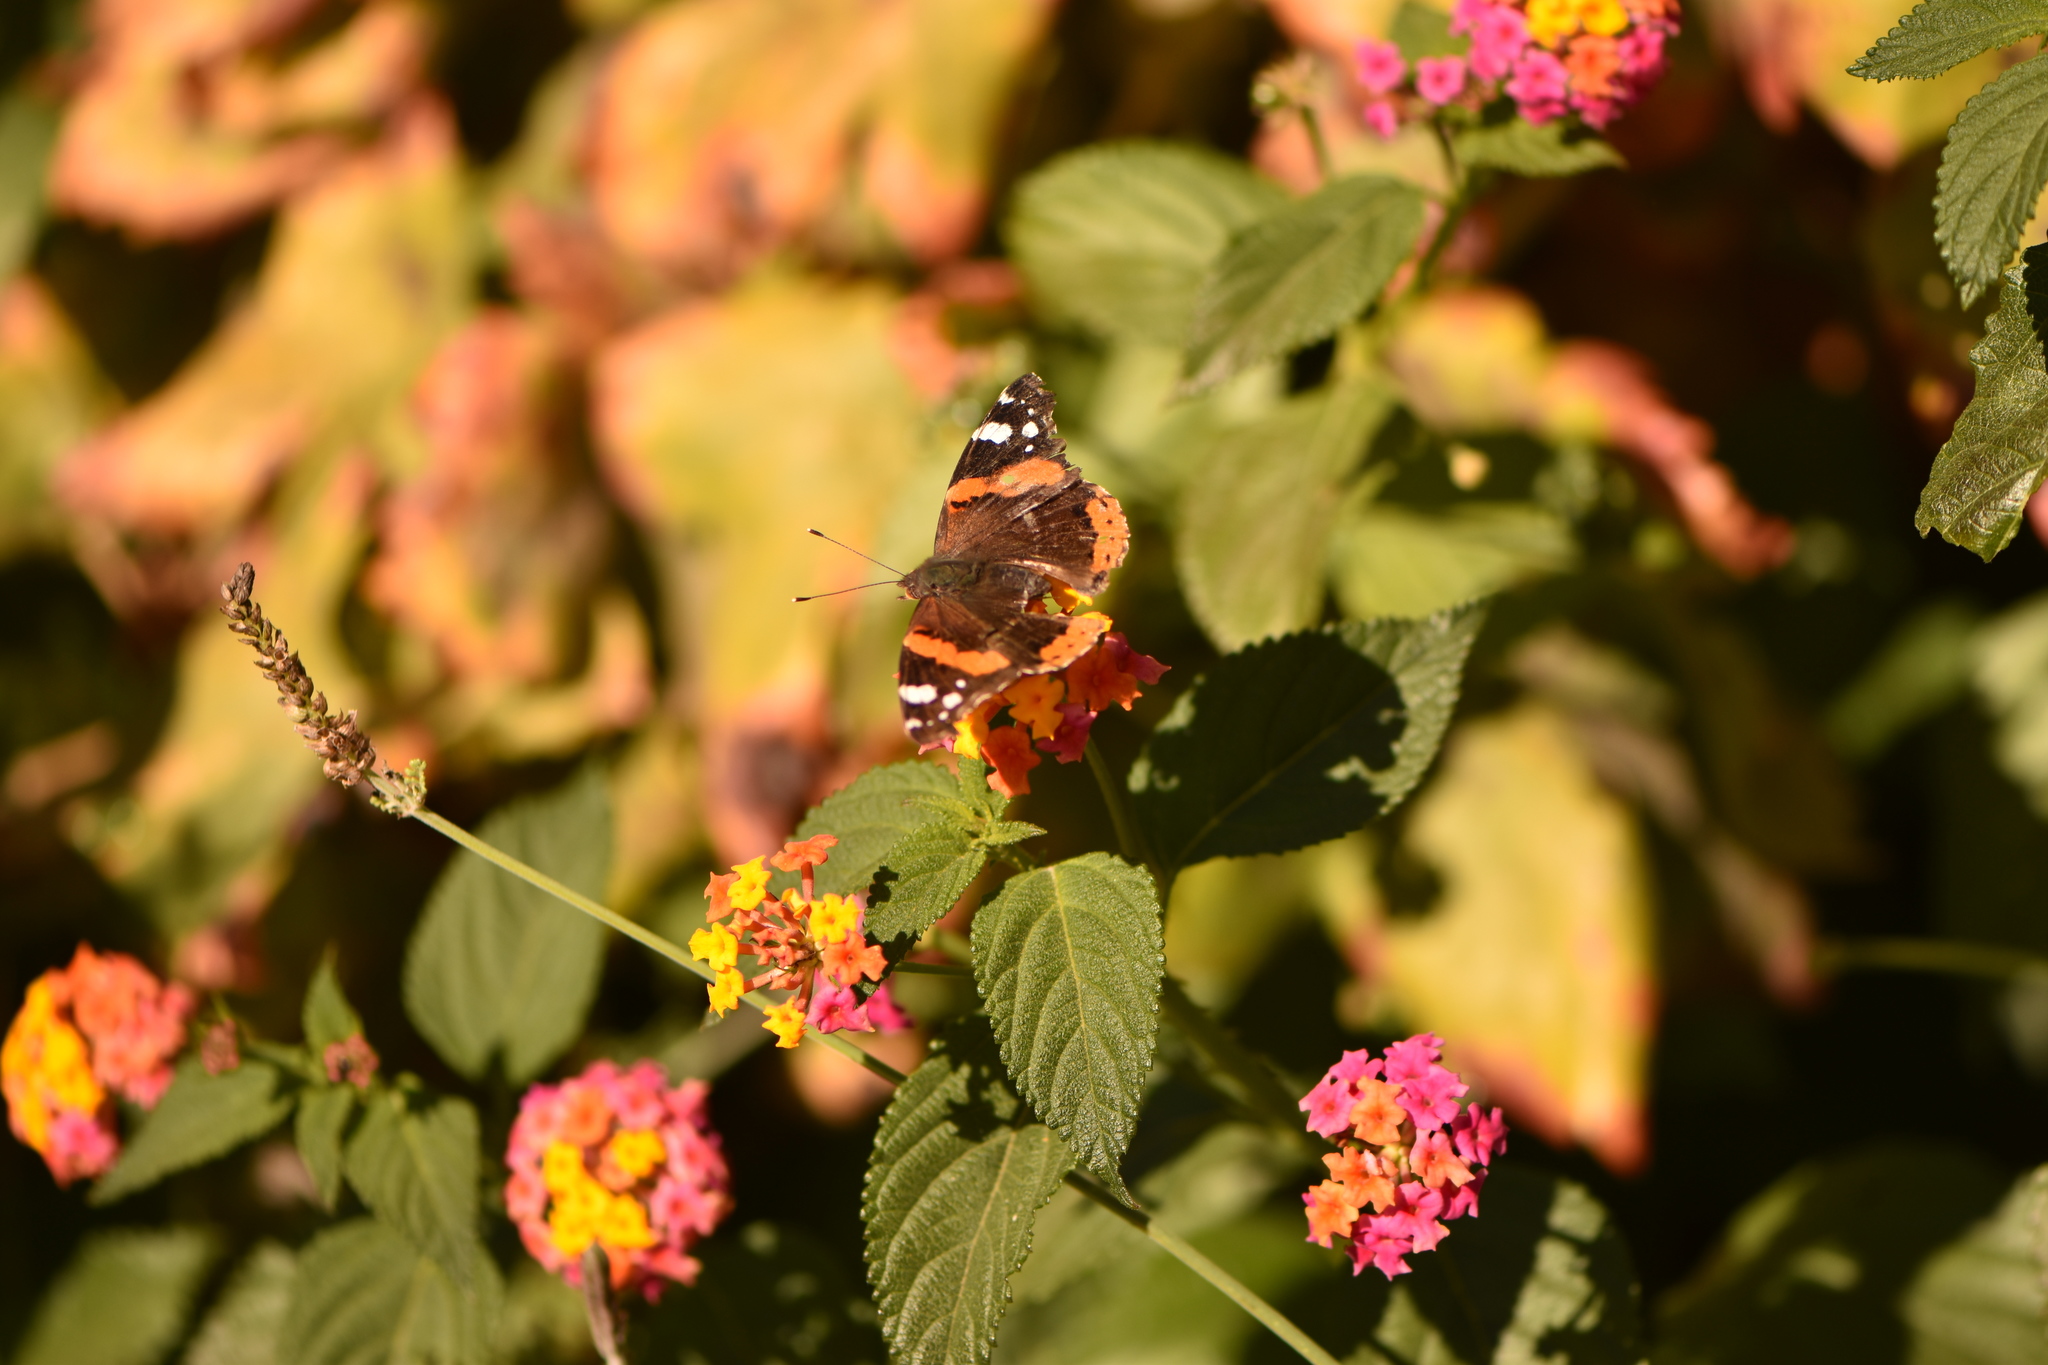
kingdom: Animalia
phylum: Arthropoda
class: Insecta
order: Lepidoptera
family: Nymphalidae
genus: Vanessa
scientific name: Vanessa atalanta
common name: Red admiral
